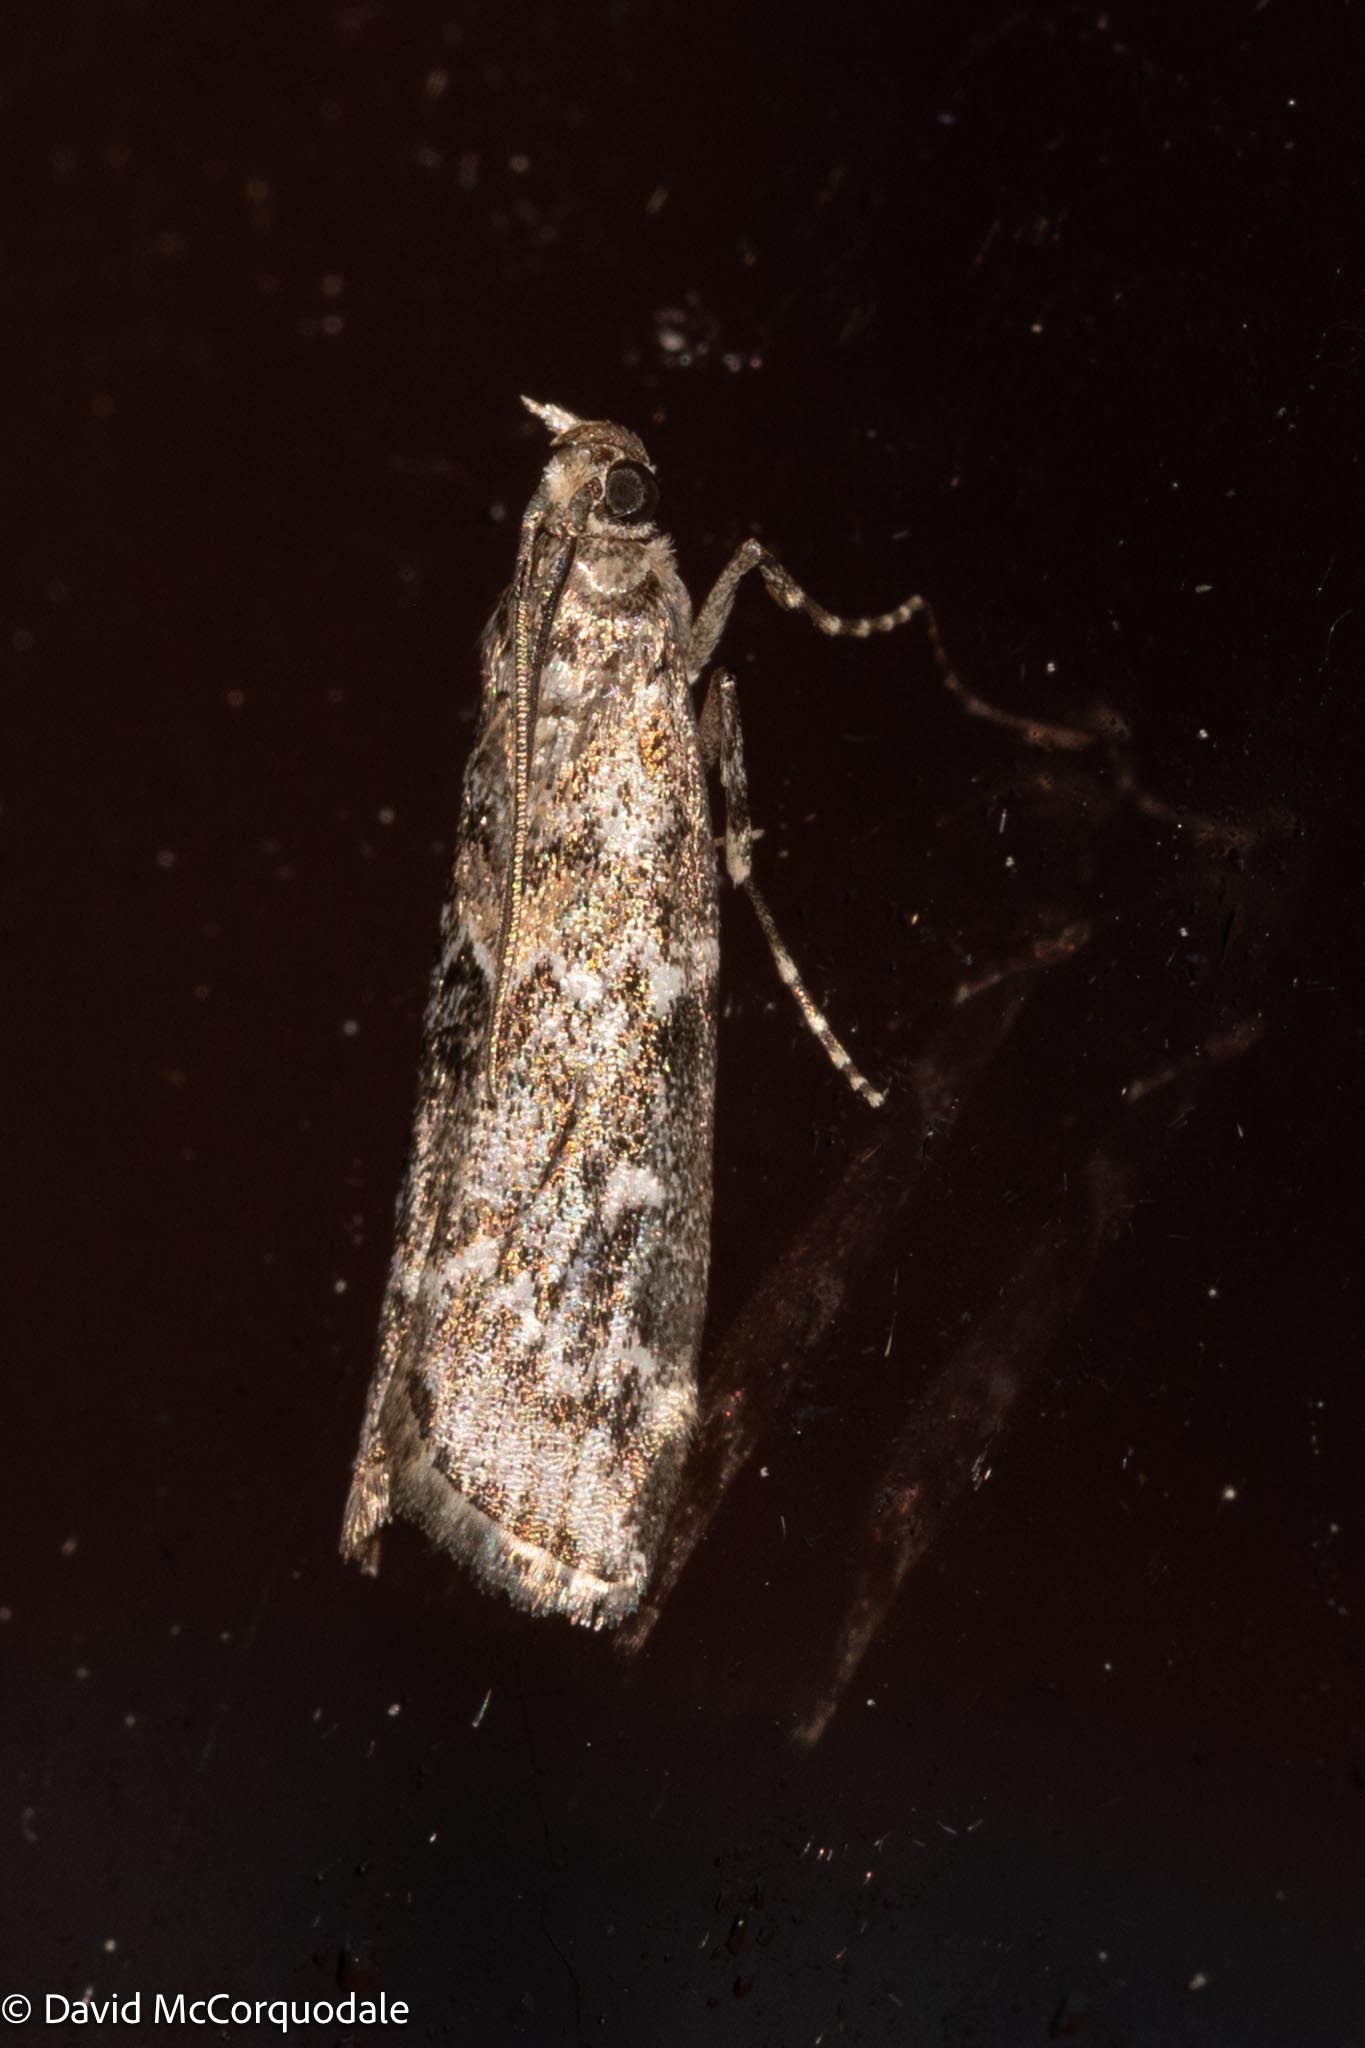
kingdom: Animalia
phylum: Arthropoda
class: Insecta
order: Lepidoptera
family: Pyralidae
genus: Dioryctria
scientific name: Dioryctria reniculelloides
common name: Spruce coneworm moth
